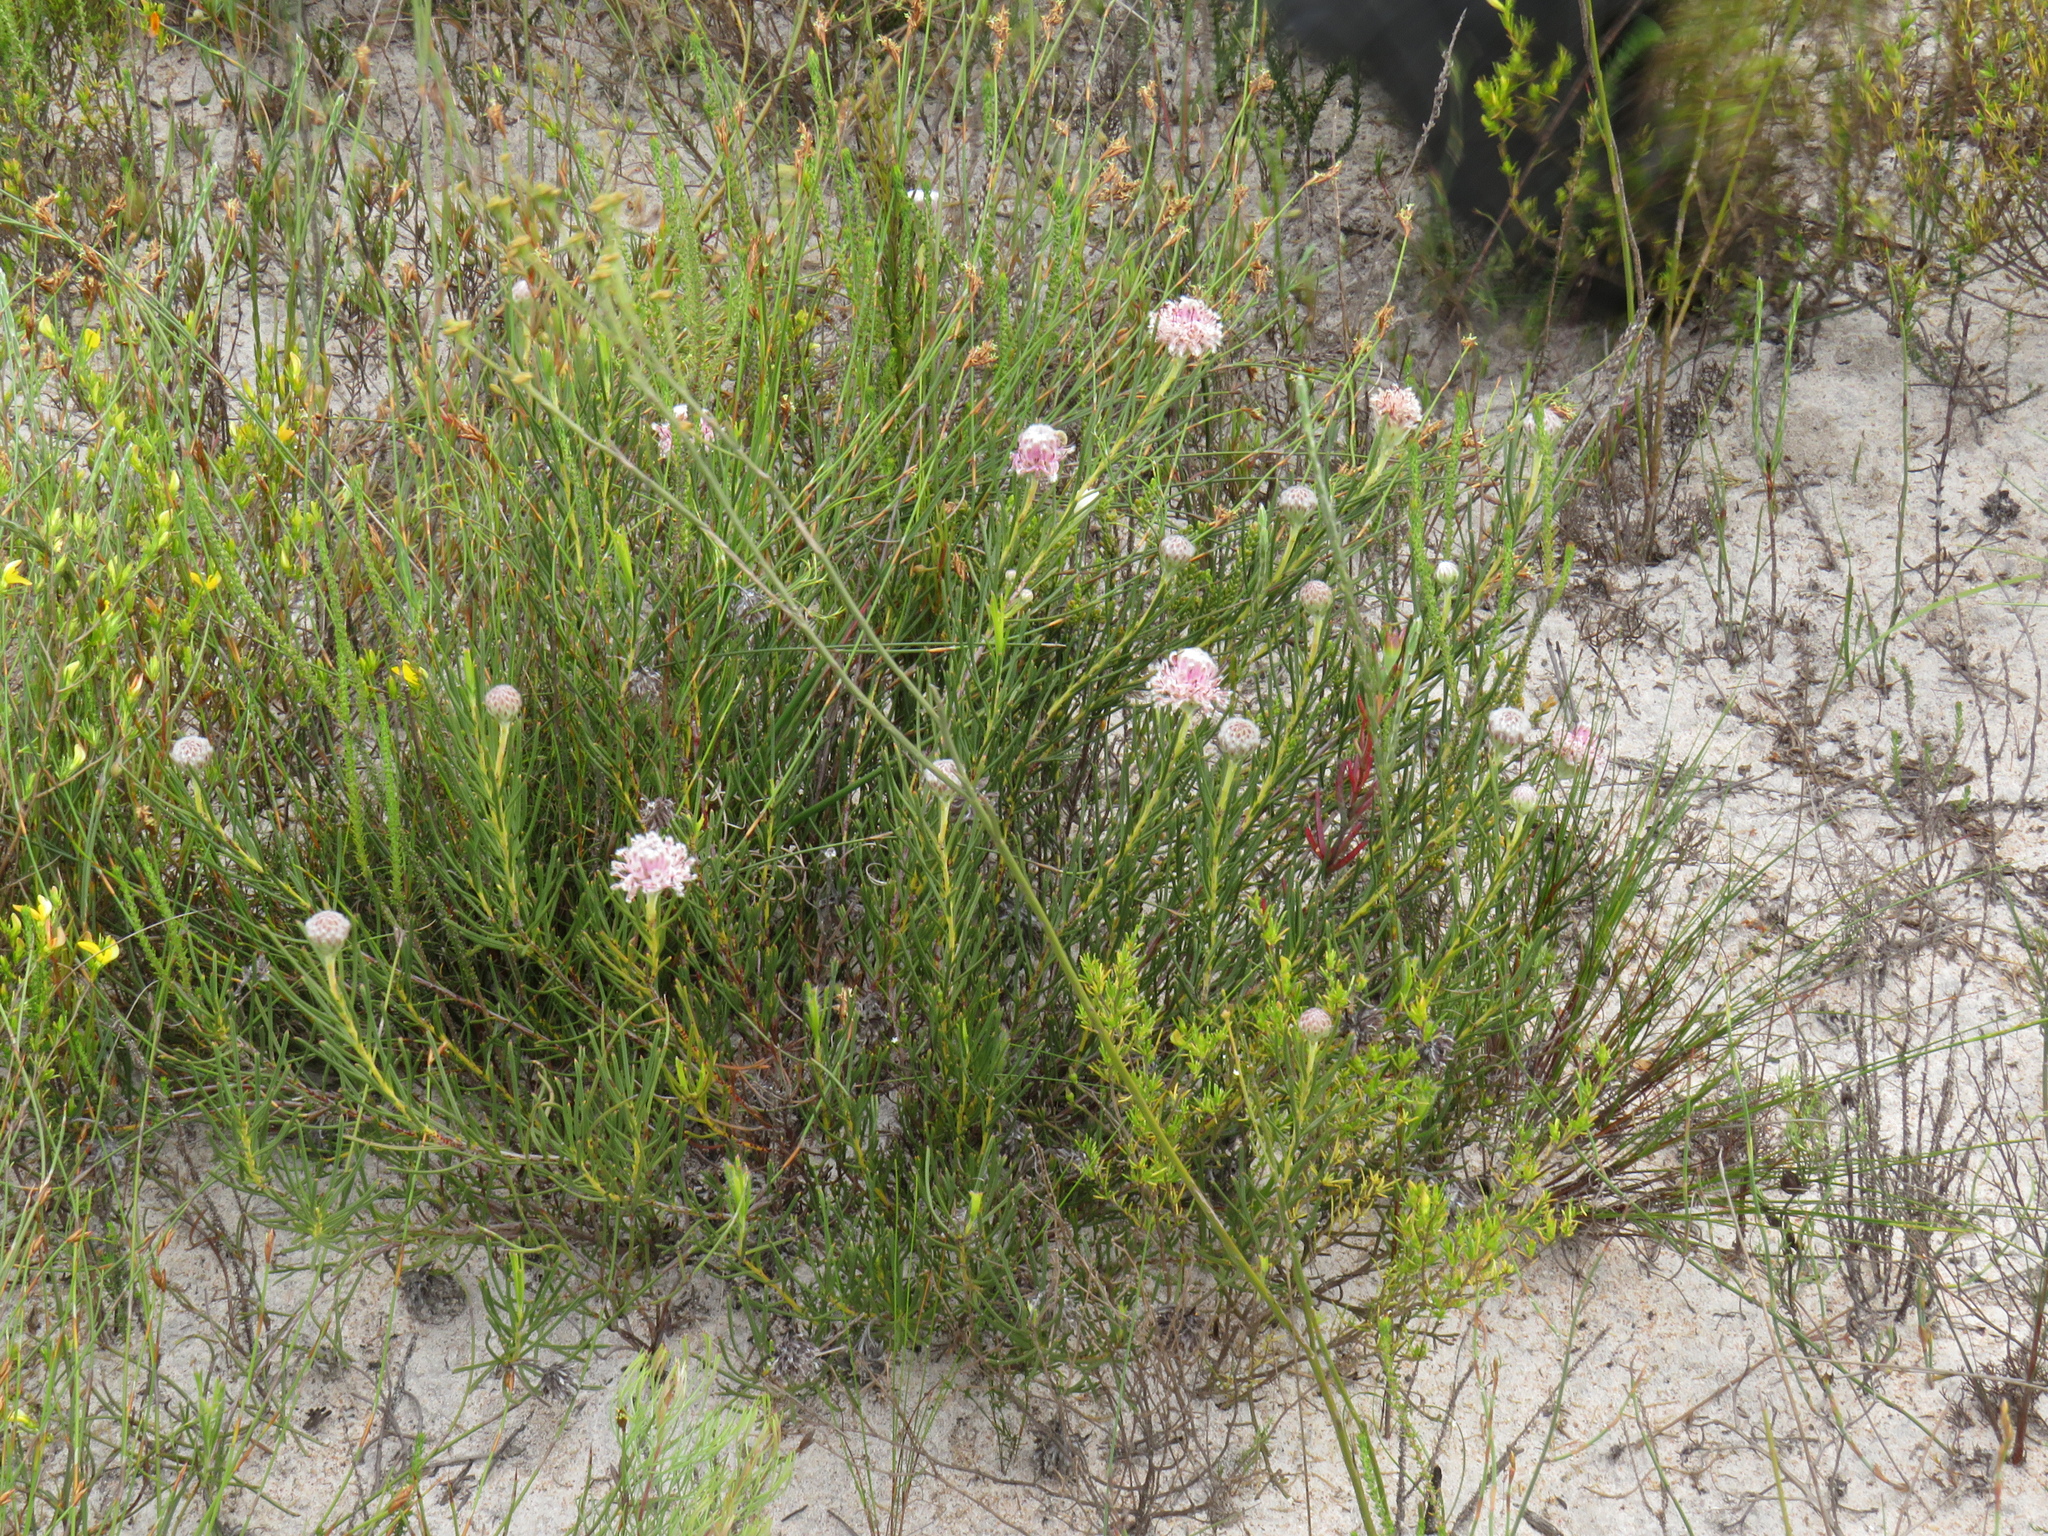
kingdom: Plantae
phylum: Tracheophyta
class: Magnoliopsida
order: Proteales
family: Proteaceae
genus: Serruria
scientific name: Serruria linearis
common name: Needle-leaf spiderhead
